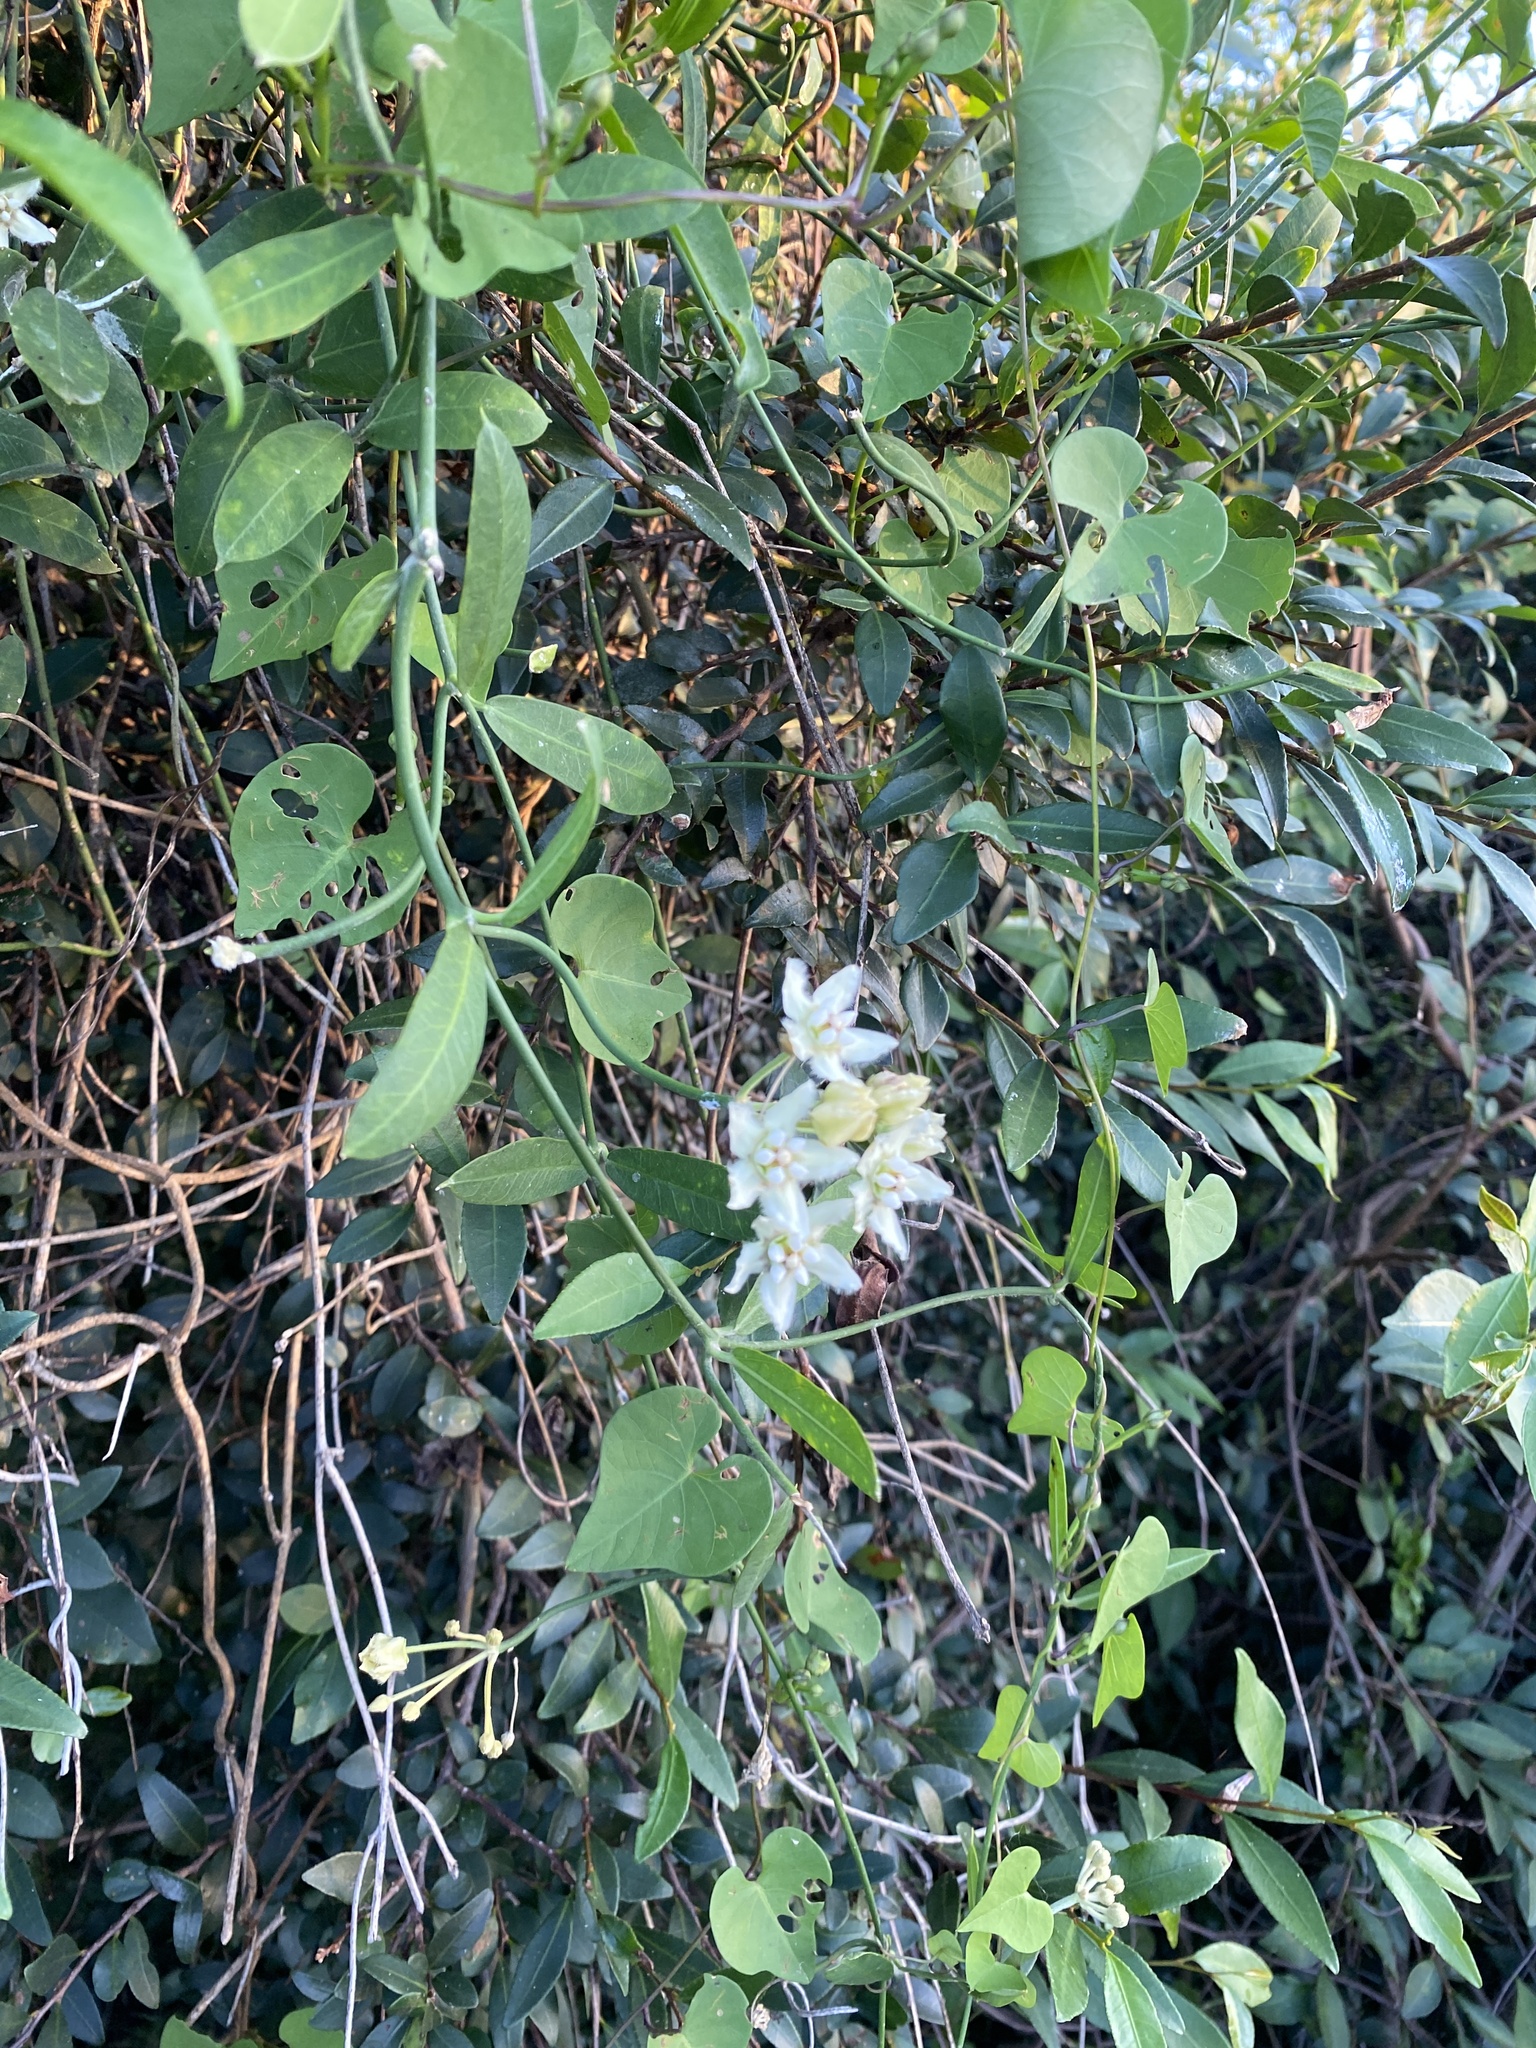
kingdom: Plantae
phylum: Tracheophyta
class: Magnoliopsida
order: Gentianales
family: Apocynaceae
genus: Funastrum
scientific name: Funastrum clausum
